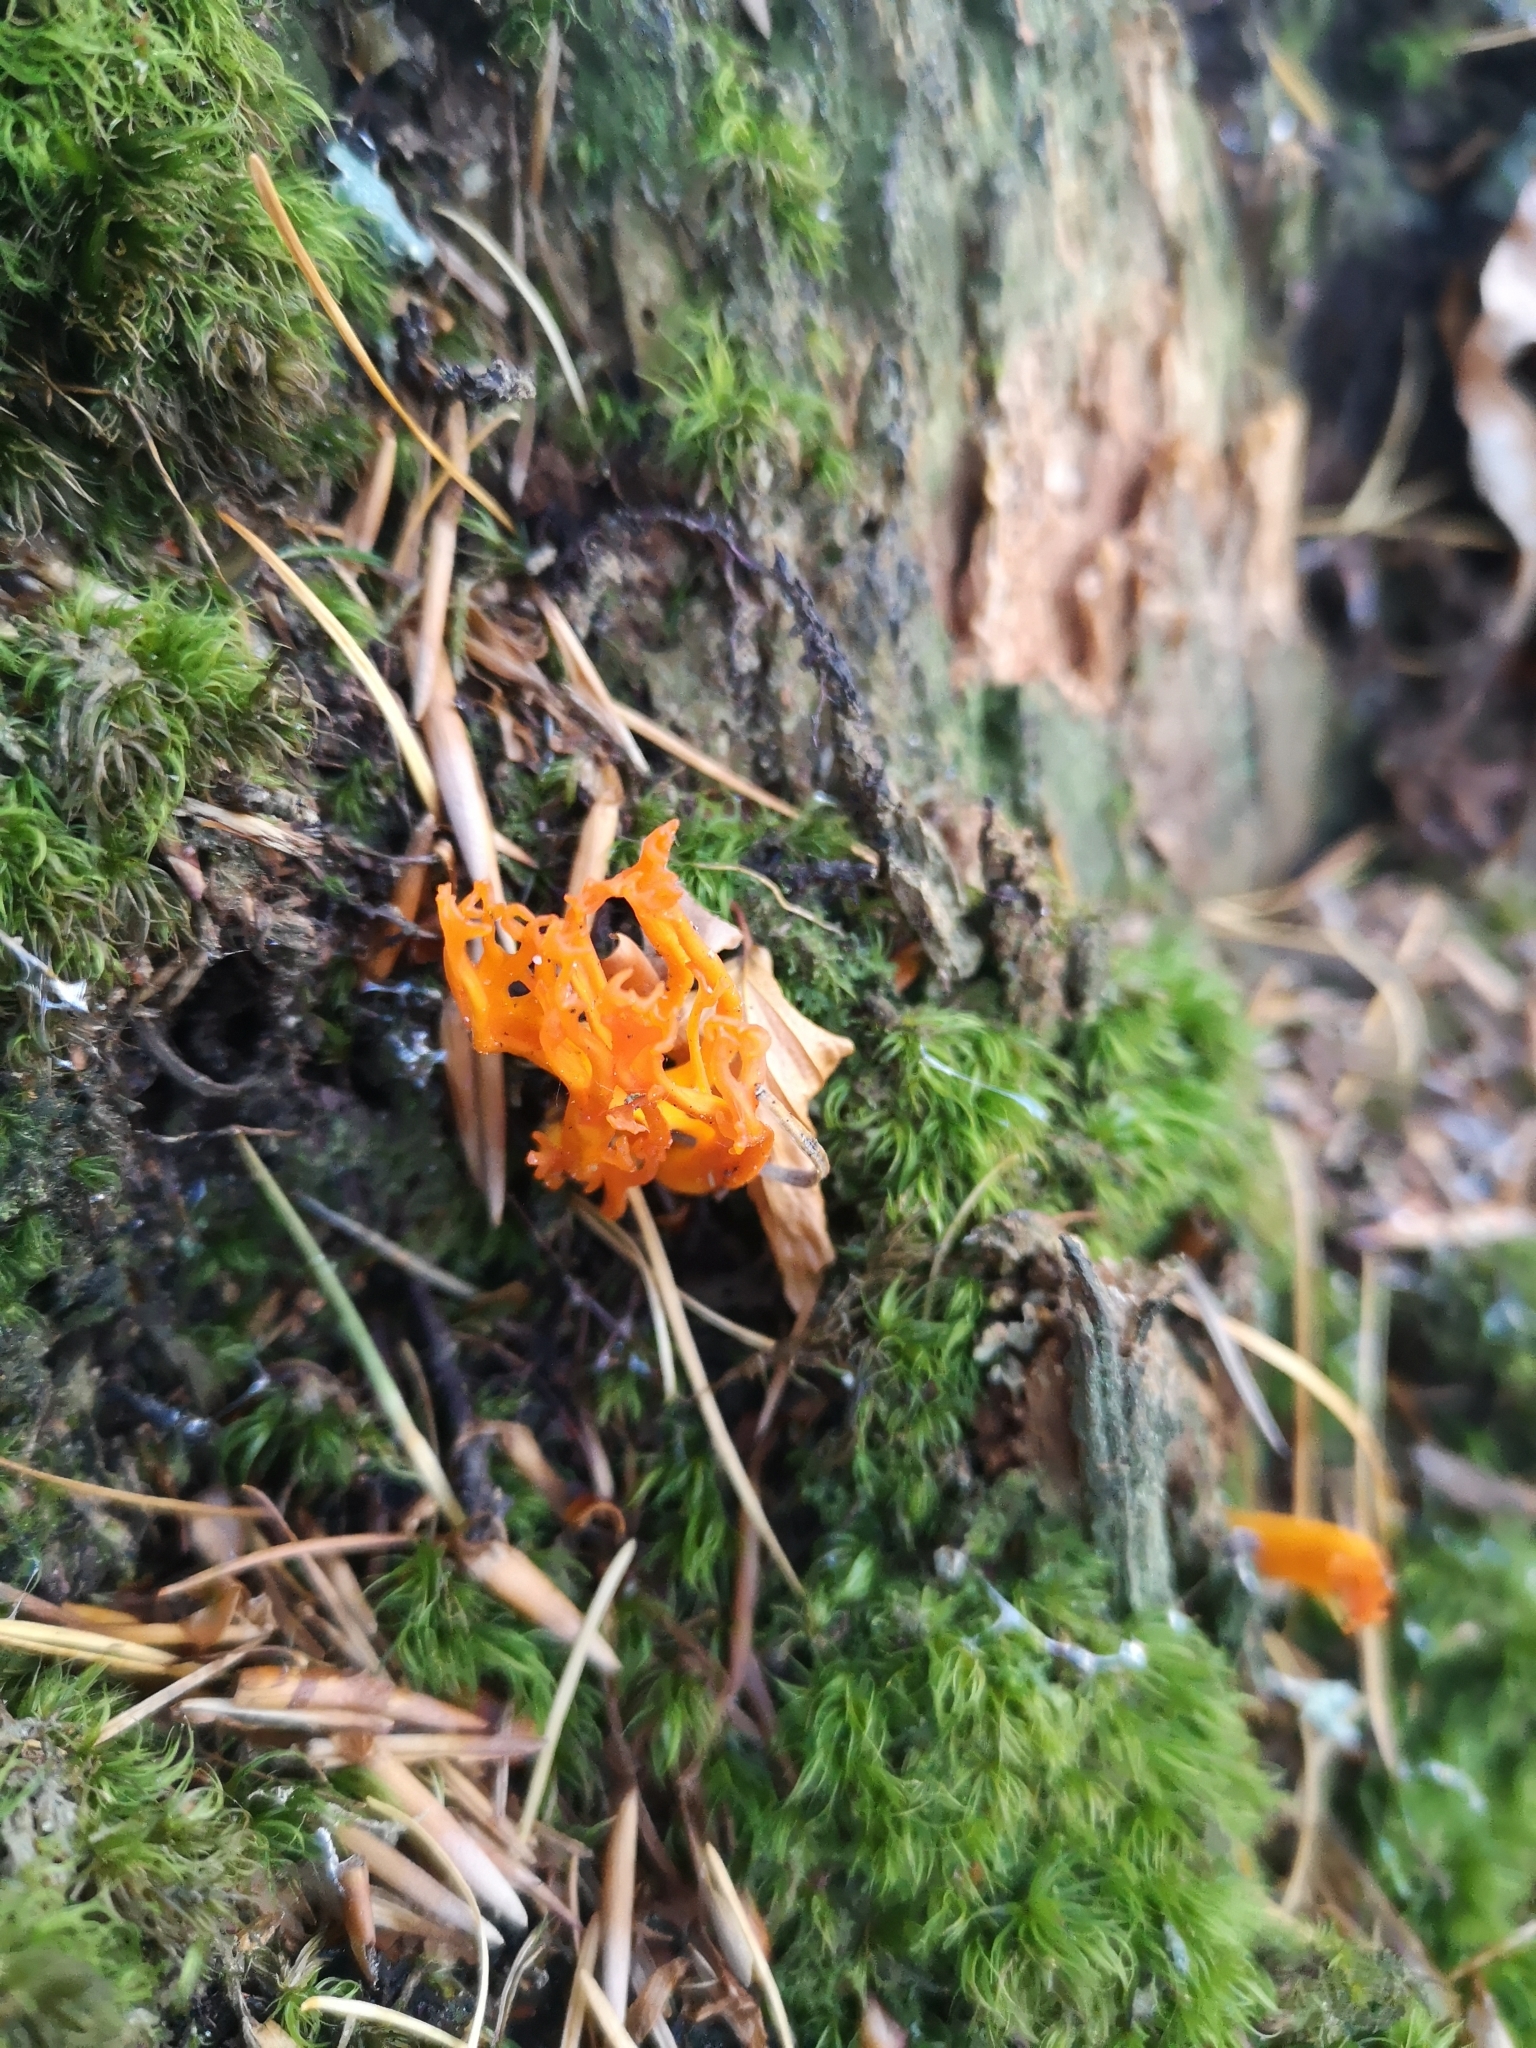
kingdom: Fungi
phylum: Basidiomycota
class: Dacrymycetes
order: Dacrymycetales
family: Dacrymycetaceae
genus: Calocera
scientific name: Calocera viscosa
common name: Yellow stagshorn
